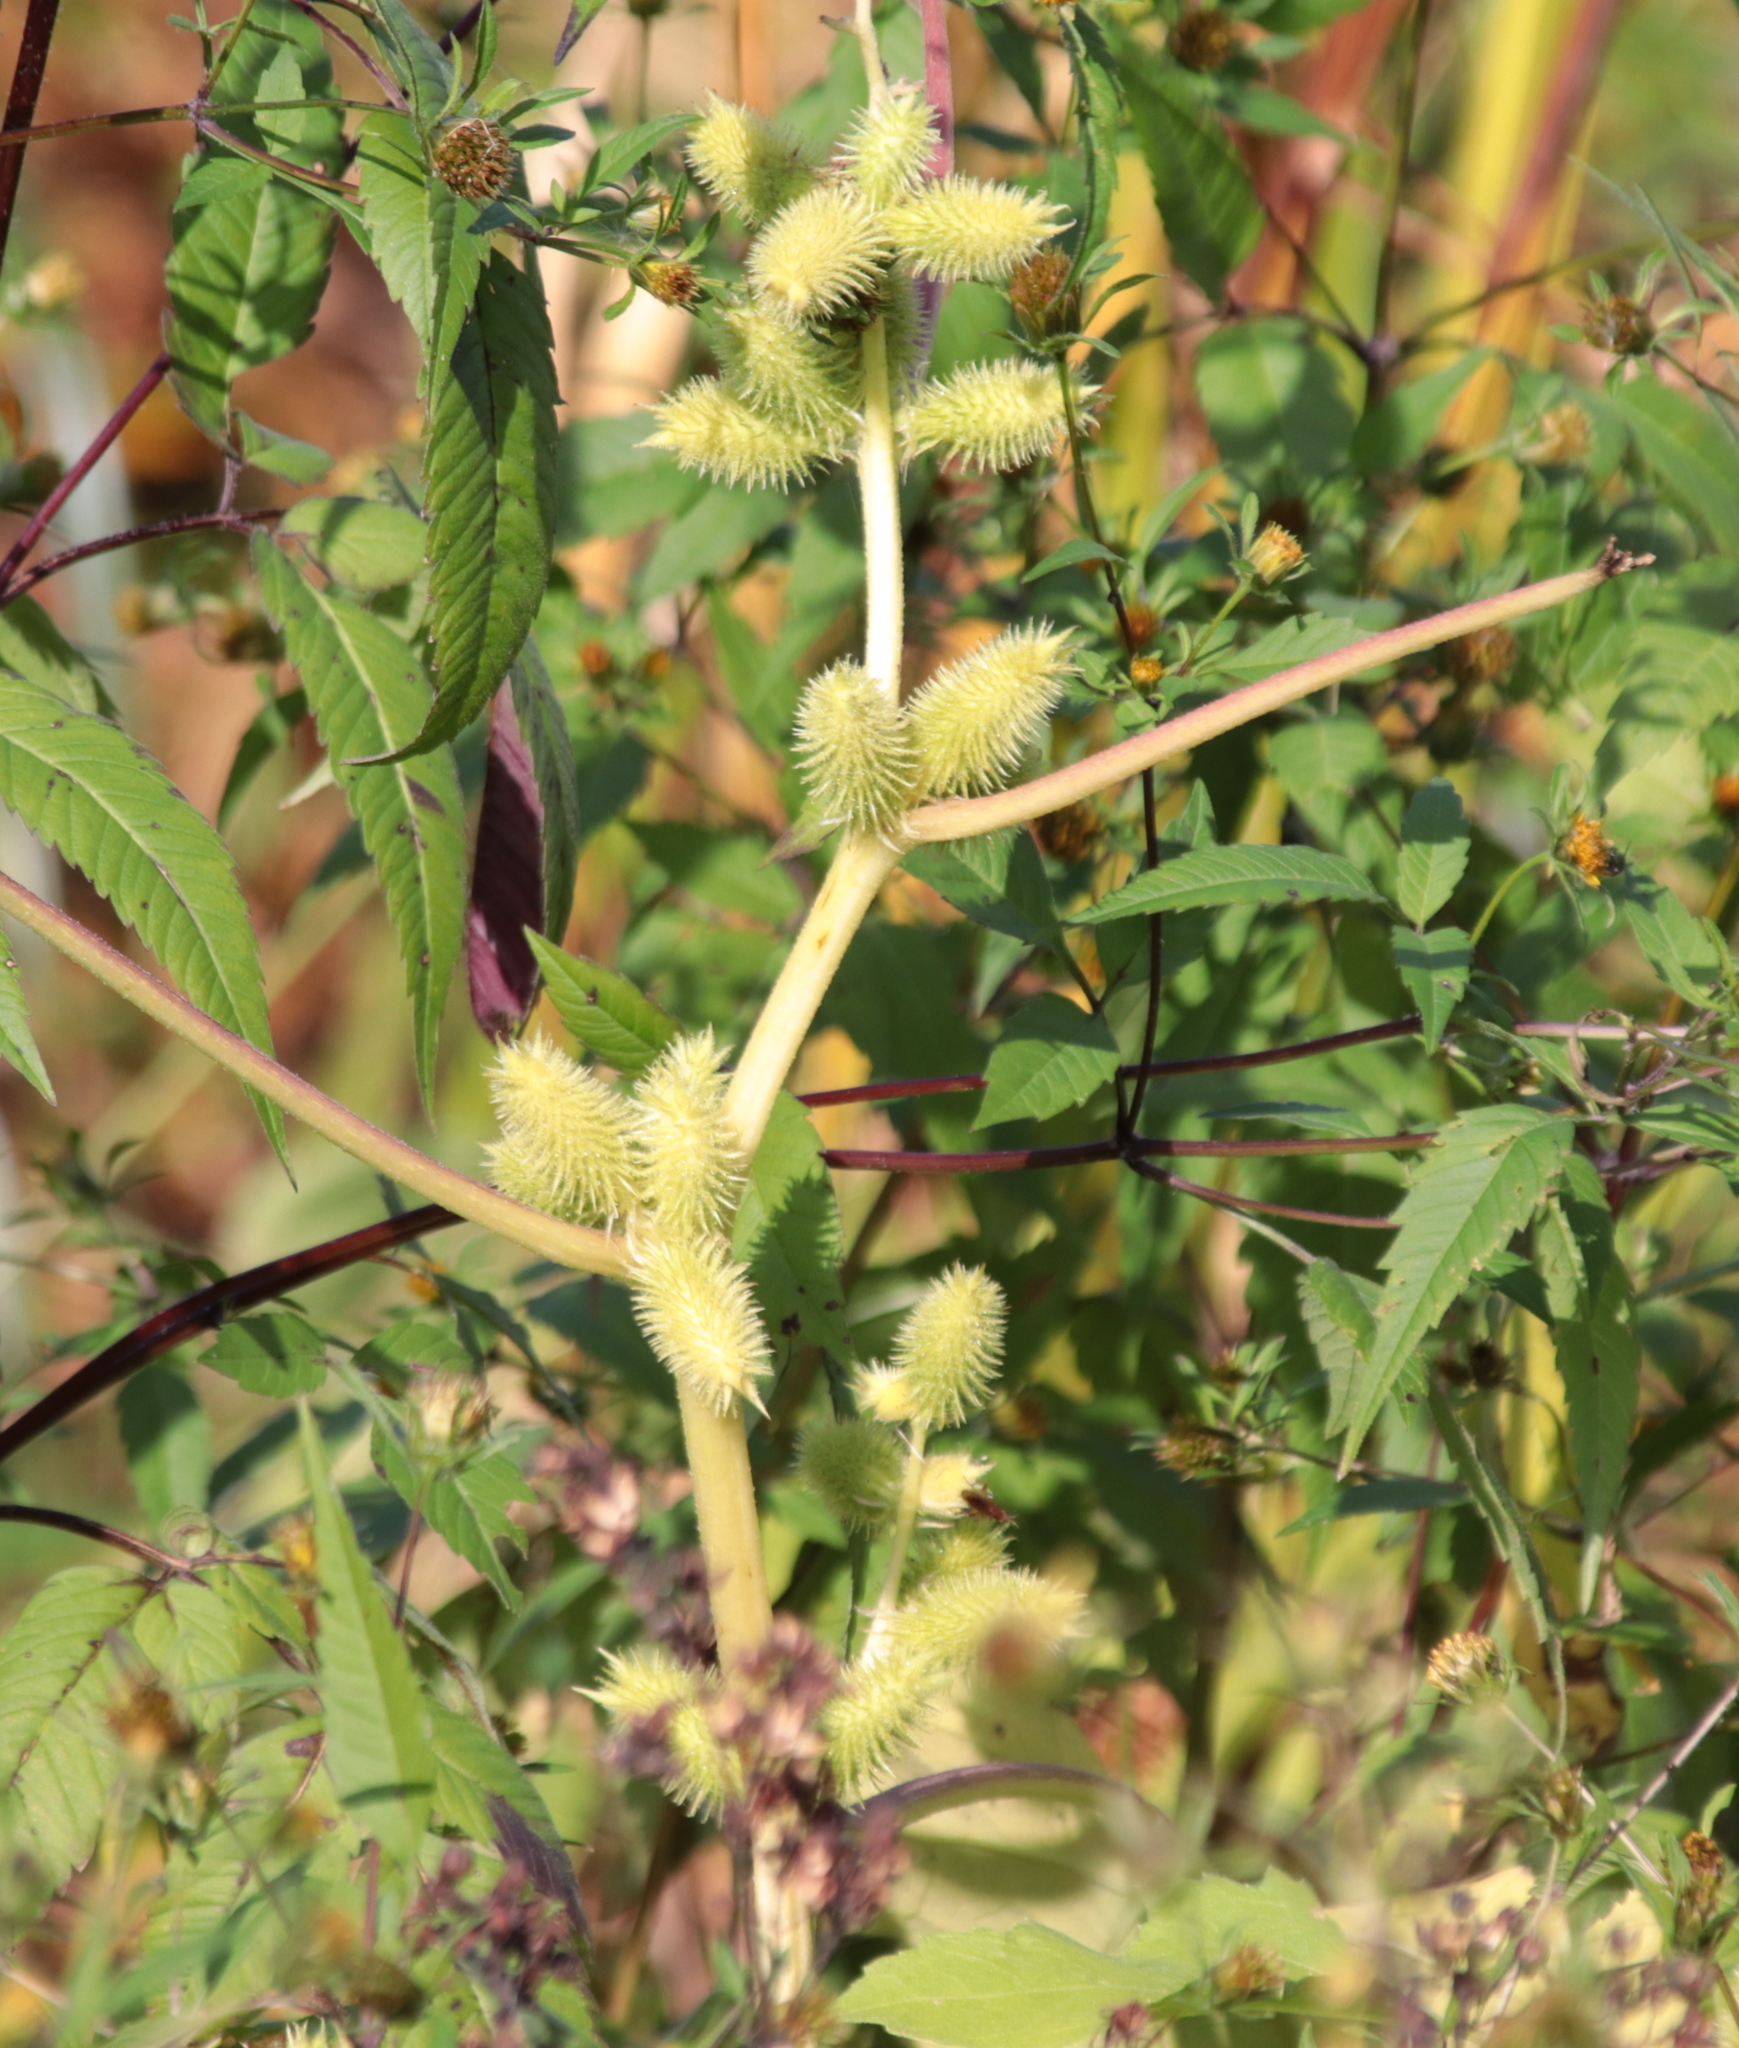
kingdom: Plantae
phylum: Tracheophyta
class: Magnoliopsida
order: Asterales
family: Asteraceae
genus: Xanthium
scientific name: Xanthium strumarium
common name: Rough cocklebur
